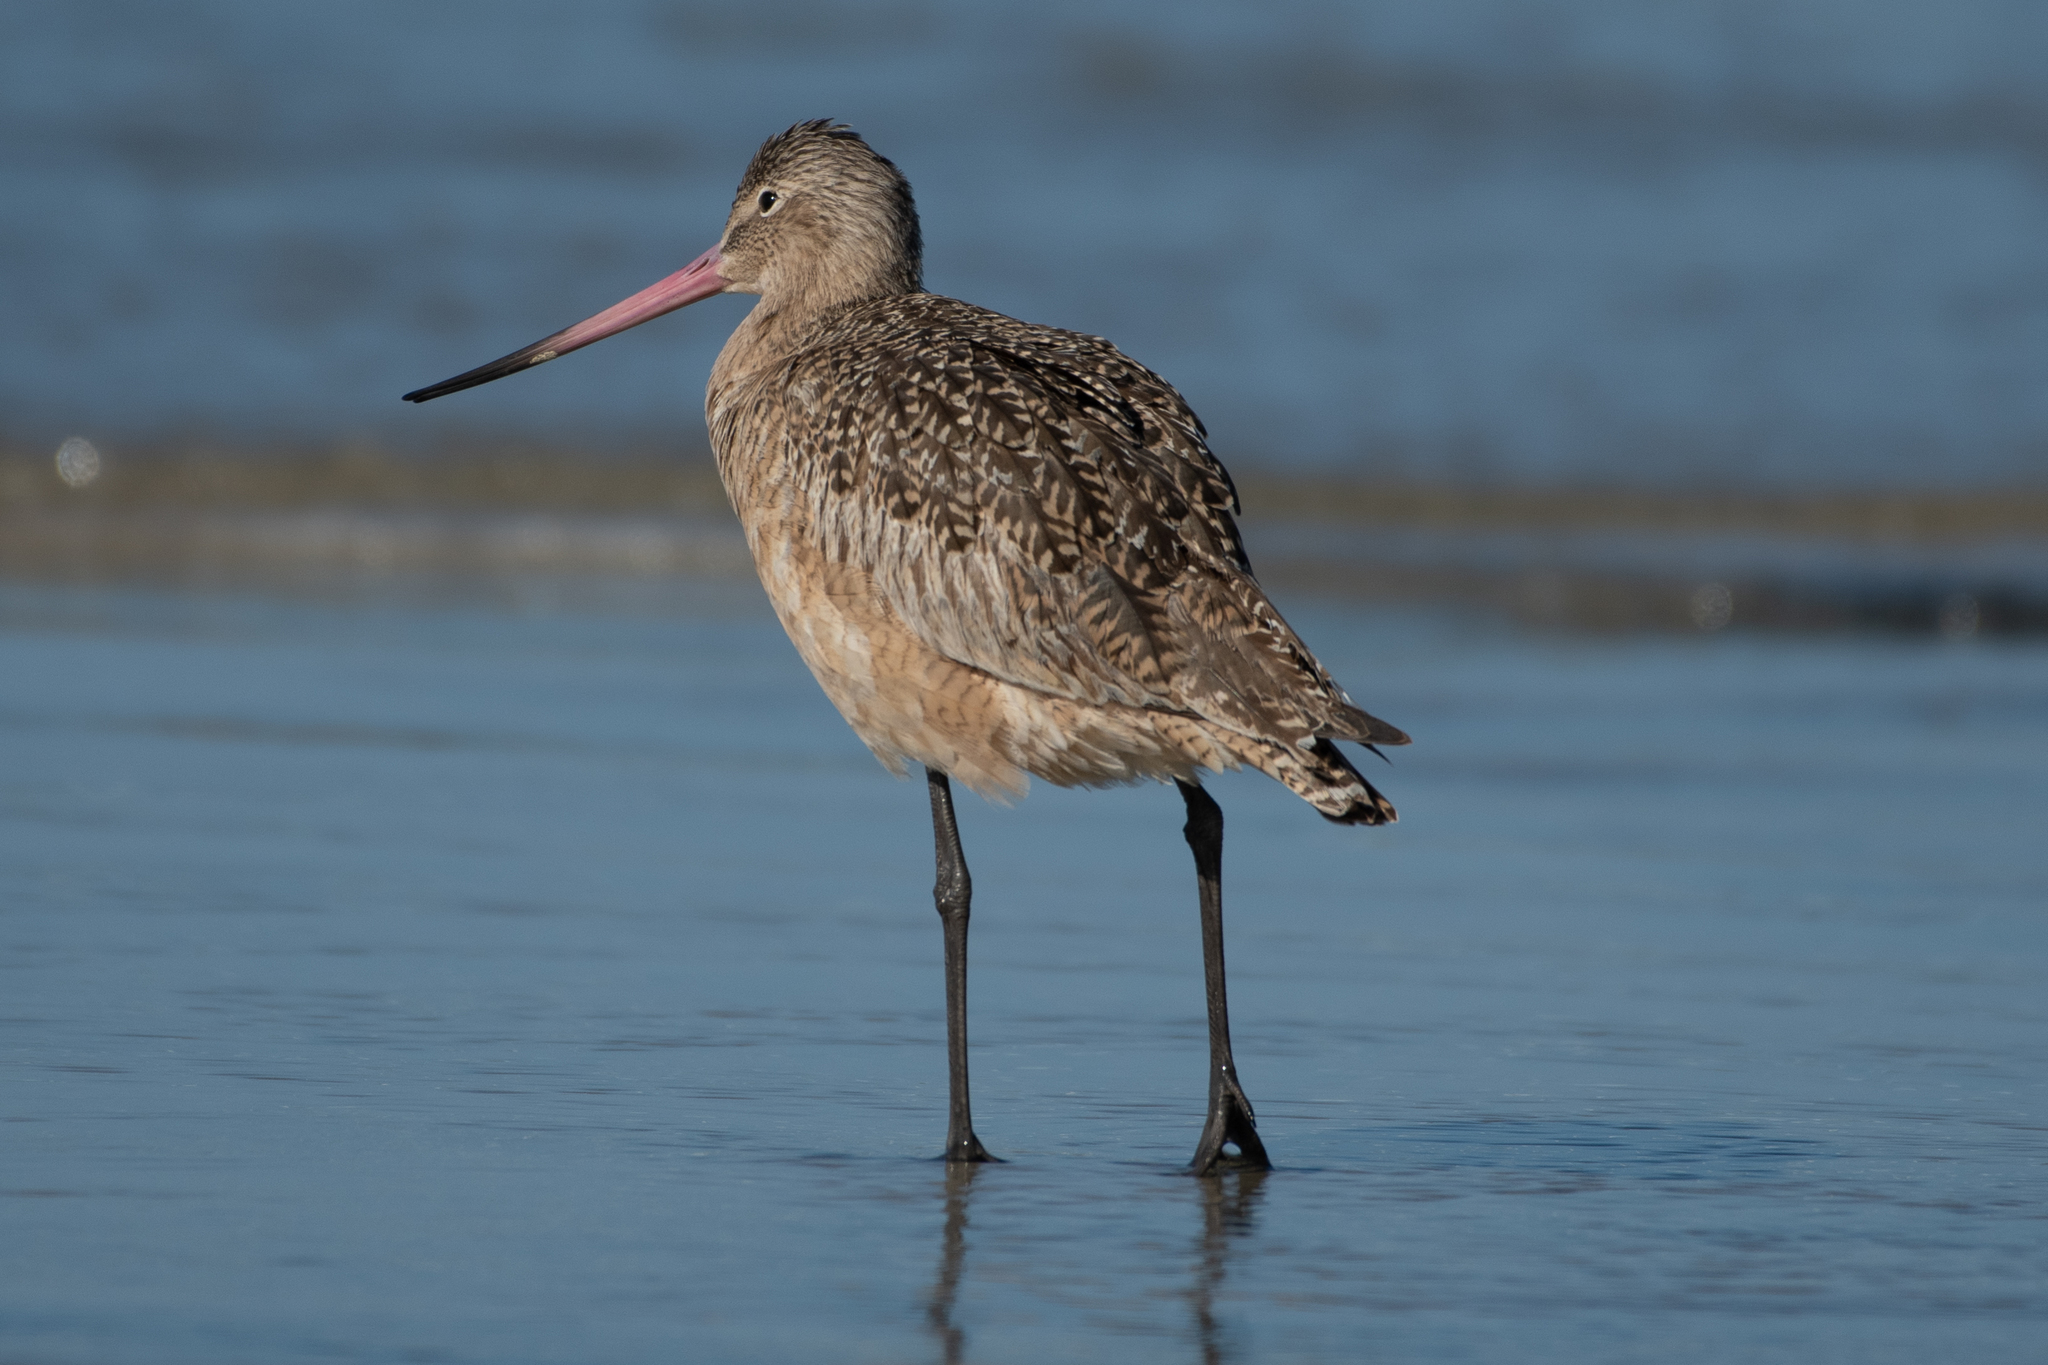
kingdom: Animalia
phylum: Chordata
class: Aves
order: Charadriiformes
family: Scolopacidae
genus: Limosa
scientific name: Limosa fedoa
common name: Marbled godwit
